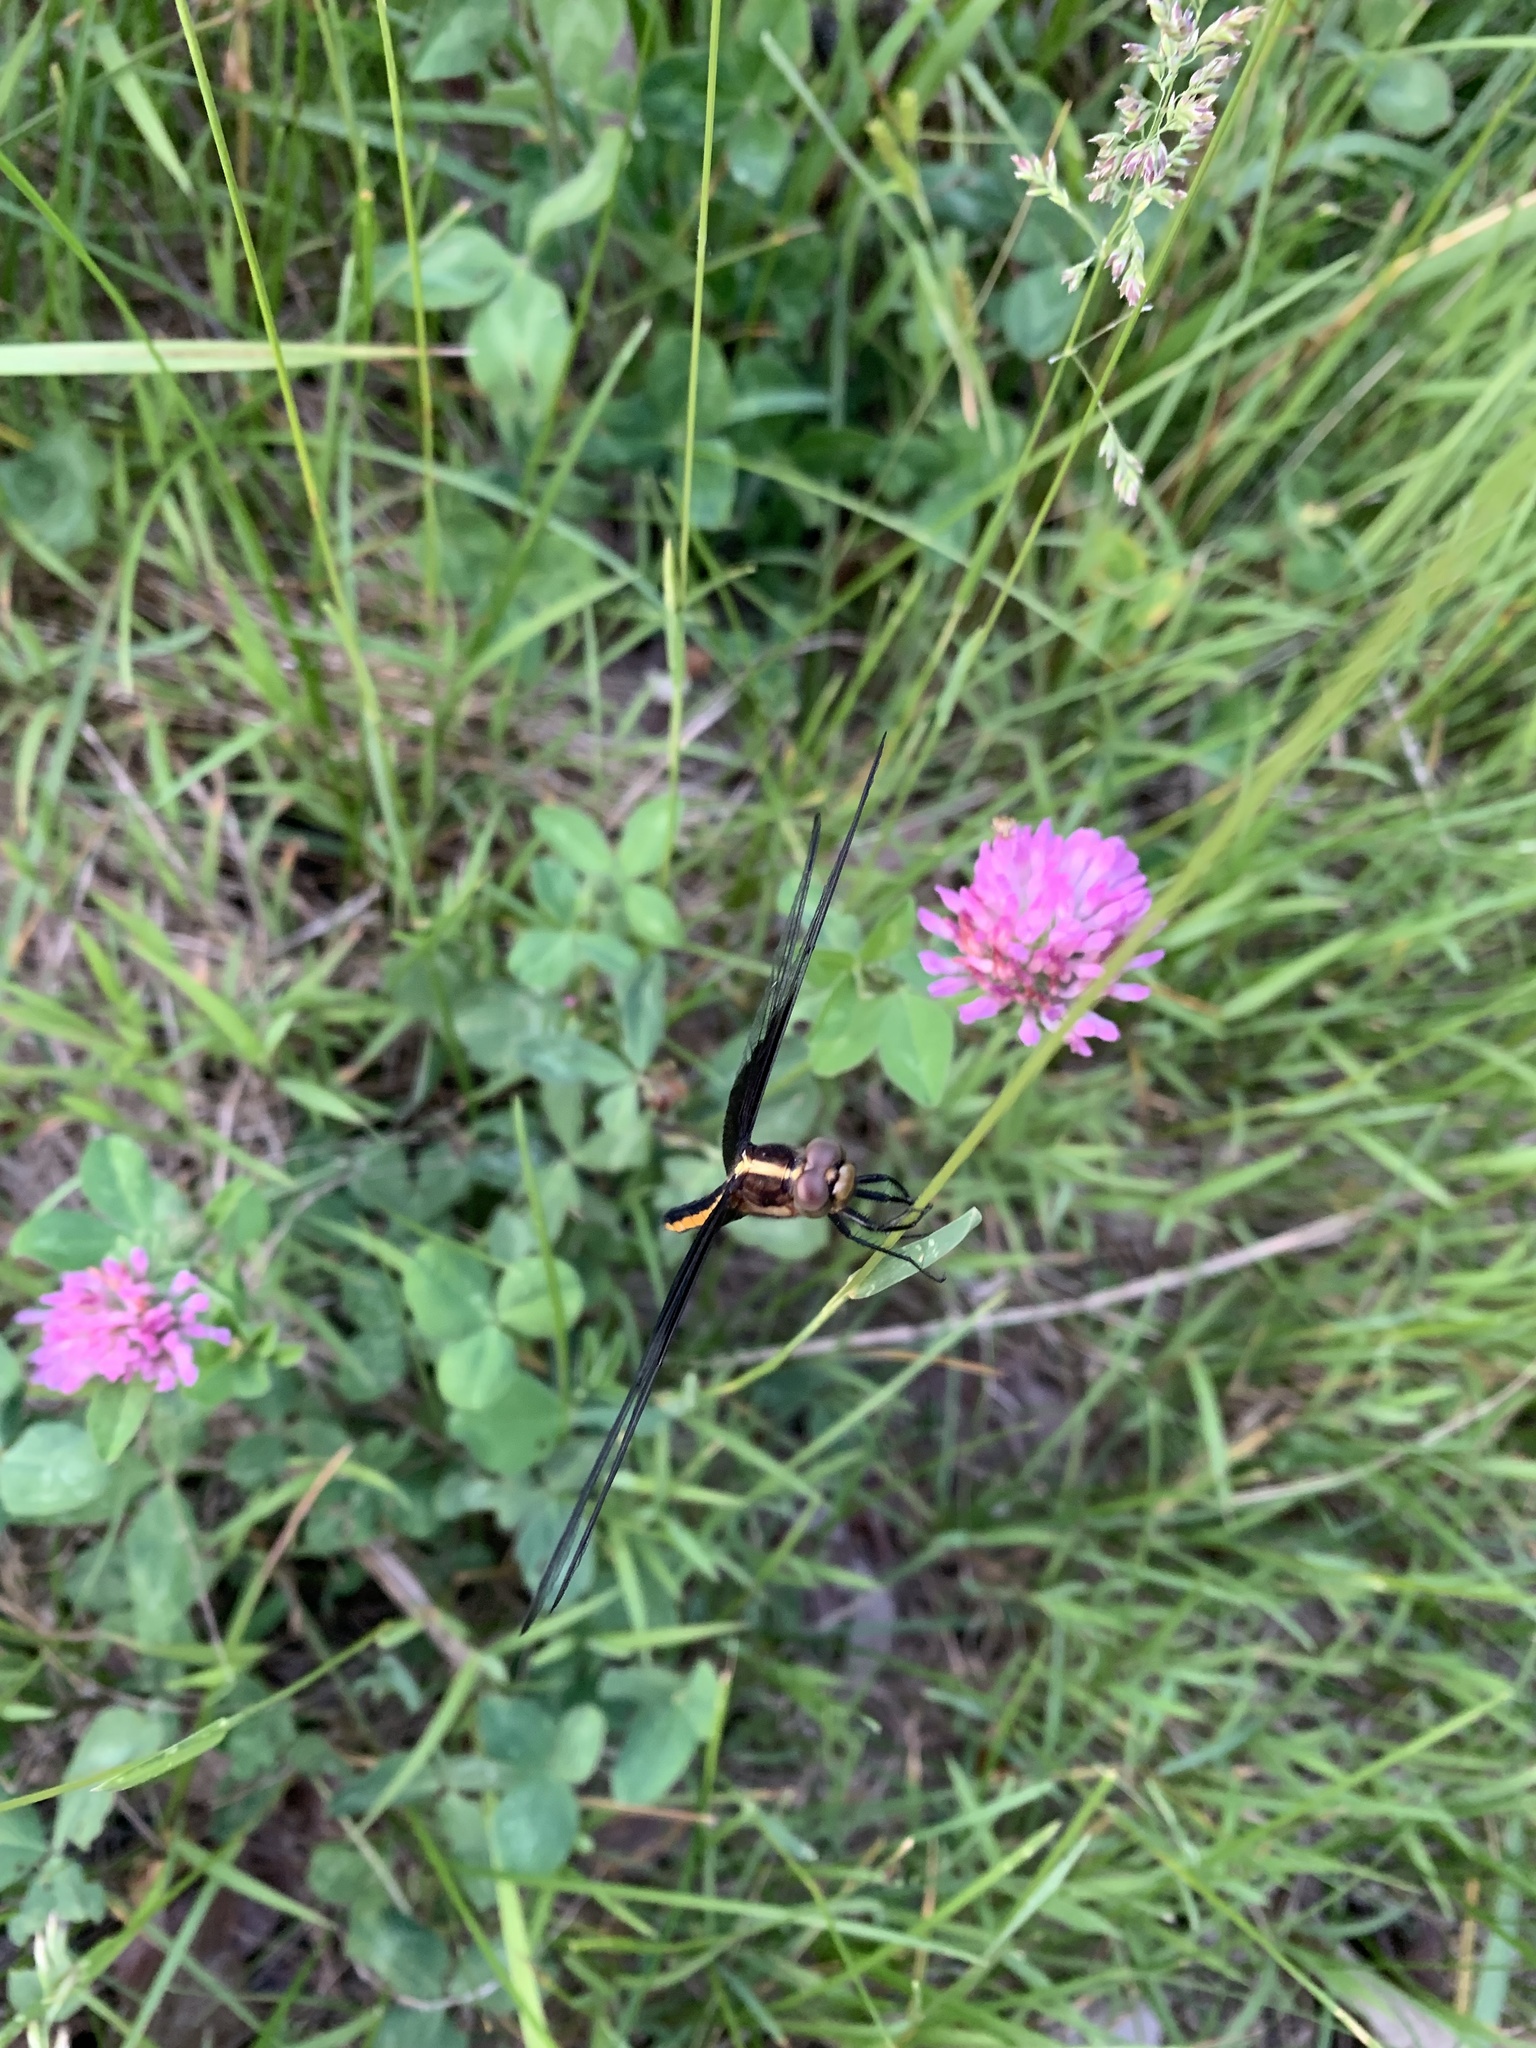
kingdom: Animalia
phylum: Arthropoda
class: Insecta
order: Odonata
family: Libellulidae
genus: Libellula
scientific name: Libellula luctuosa
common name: Widow skimmer
